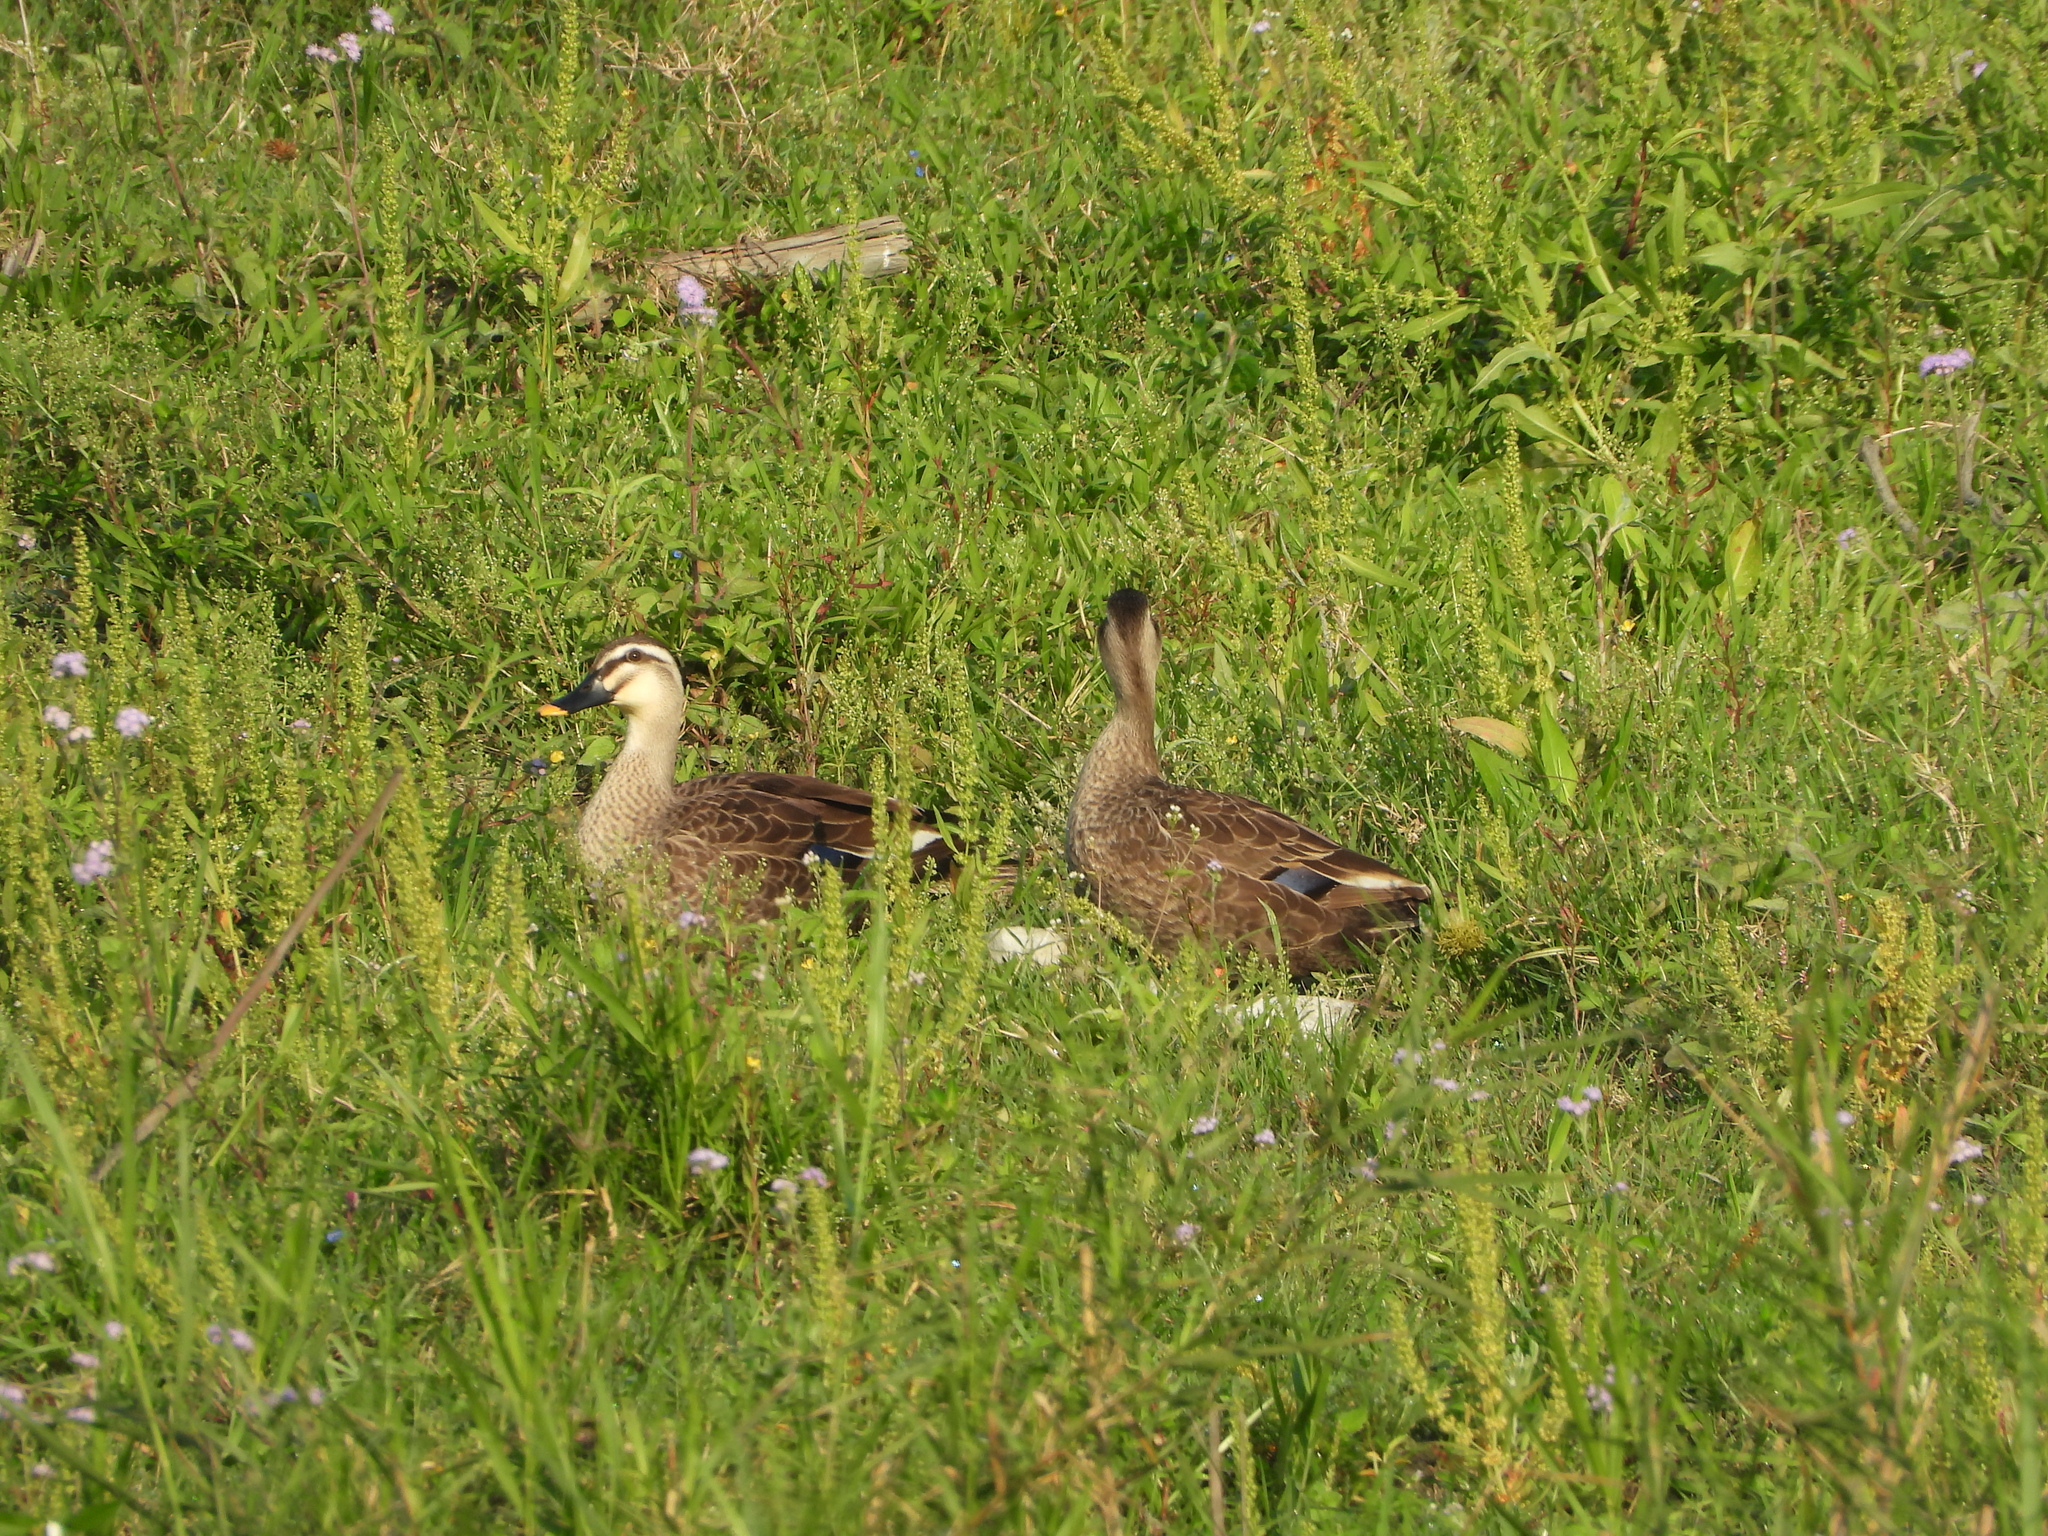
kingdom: Animalia
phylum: Chordata
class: Aves
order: Anseriformes
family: Anatidae
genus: Anas
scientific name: Anas zonorhyncha
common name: Eastern spot-billed duck
